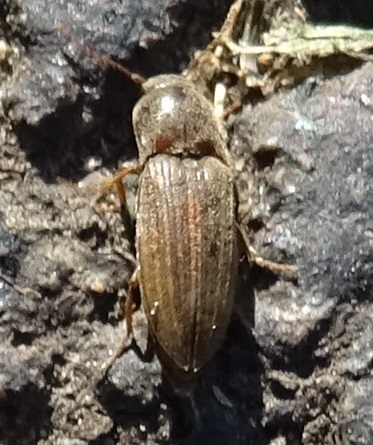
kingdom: Animalia
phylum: Arthropoda
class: Insecta
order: Coleoptera
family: Elateridae
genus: Agriotes
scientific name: Agriotes lineatus
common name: Lined click beetle
